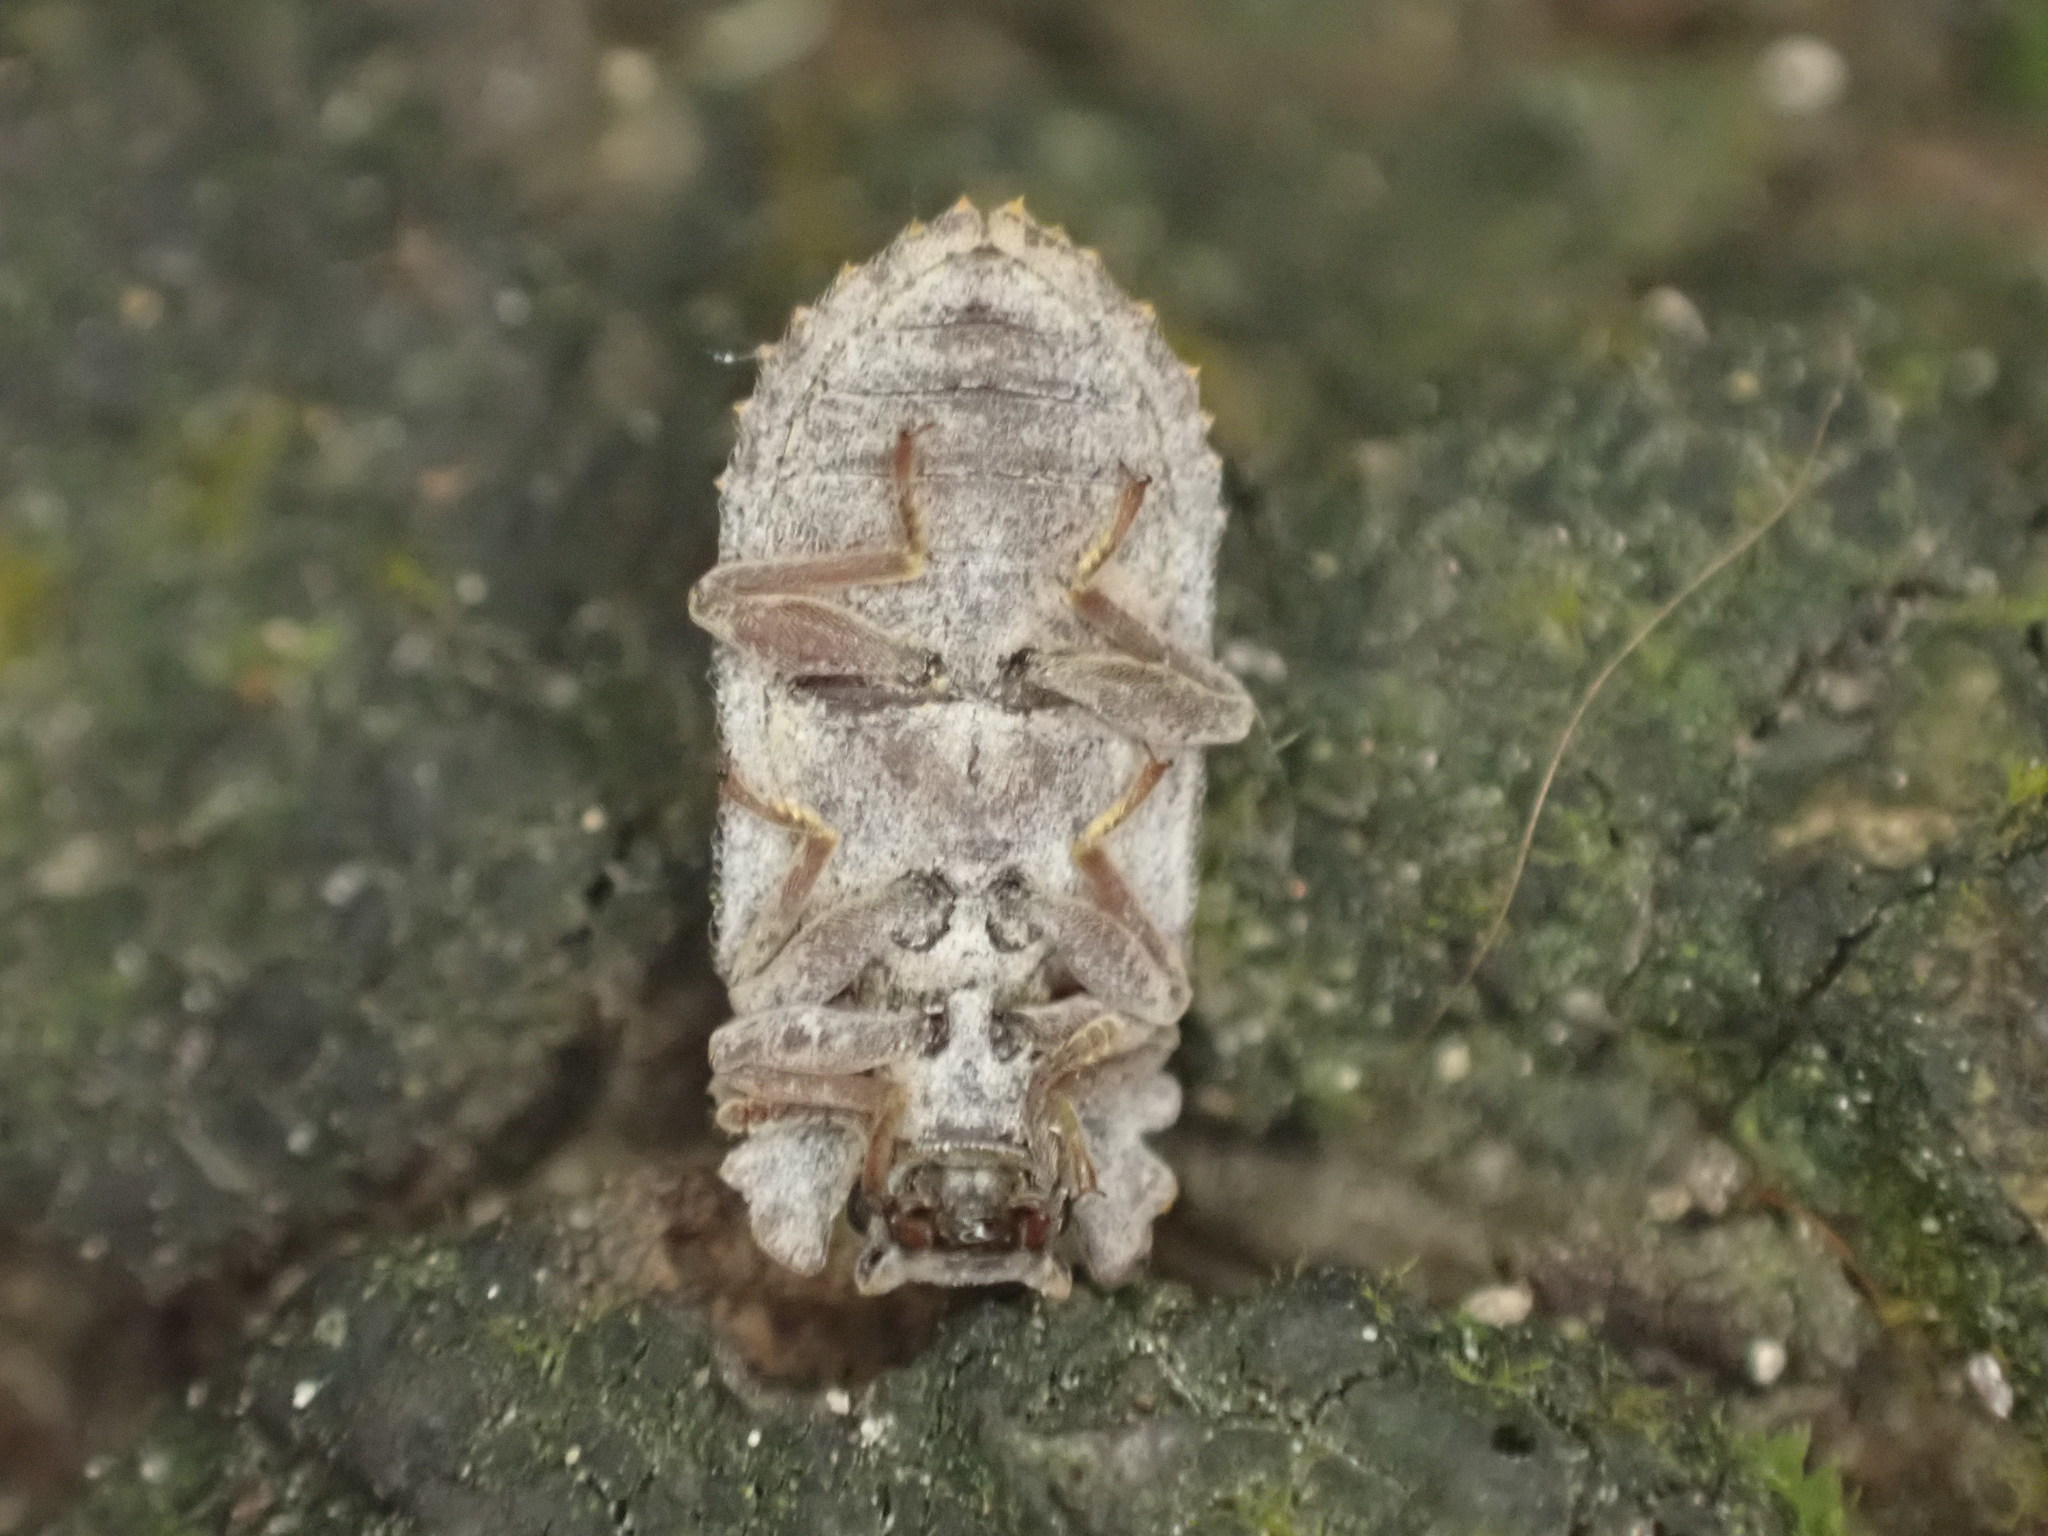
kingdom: Animalia
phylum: Arthropoda
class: Insecta
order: Coleoptera
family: Zopheridae
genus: Pristoderus
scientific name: Pristoderus
